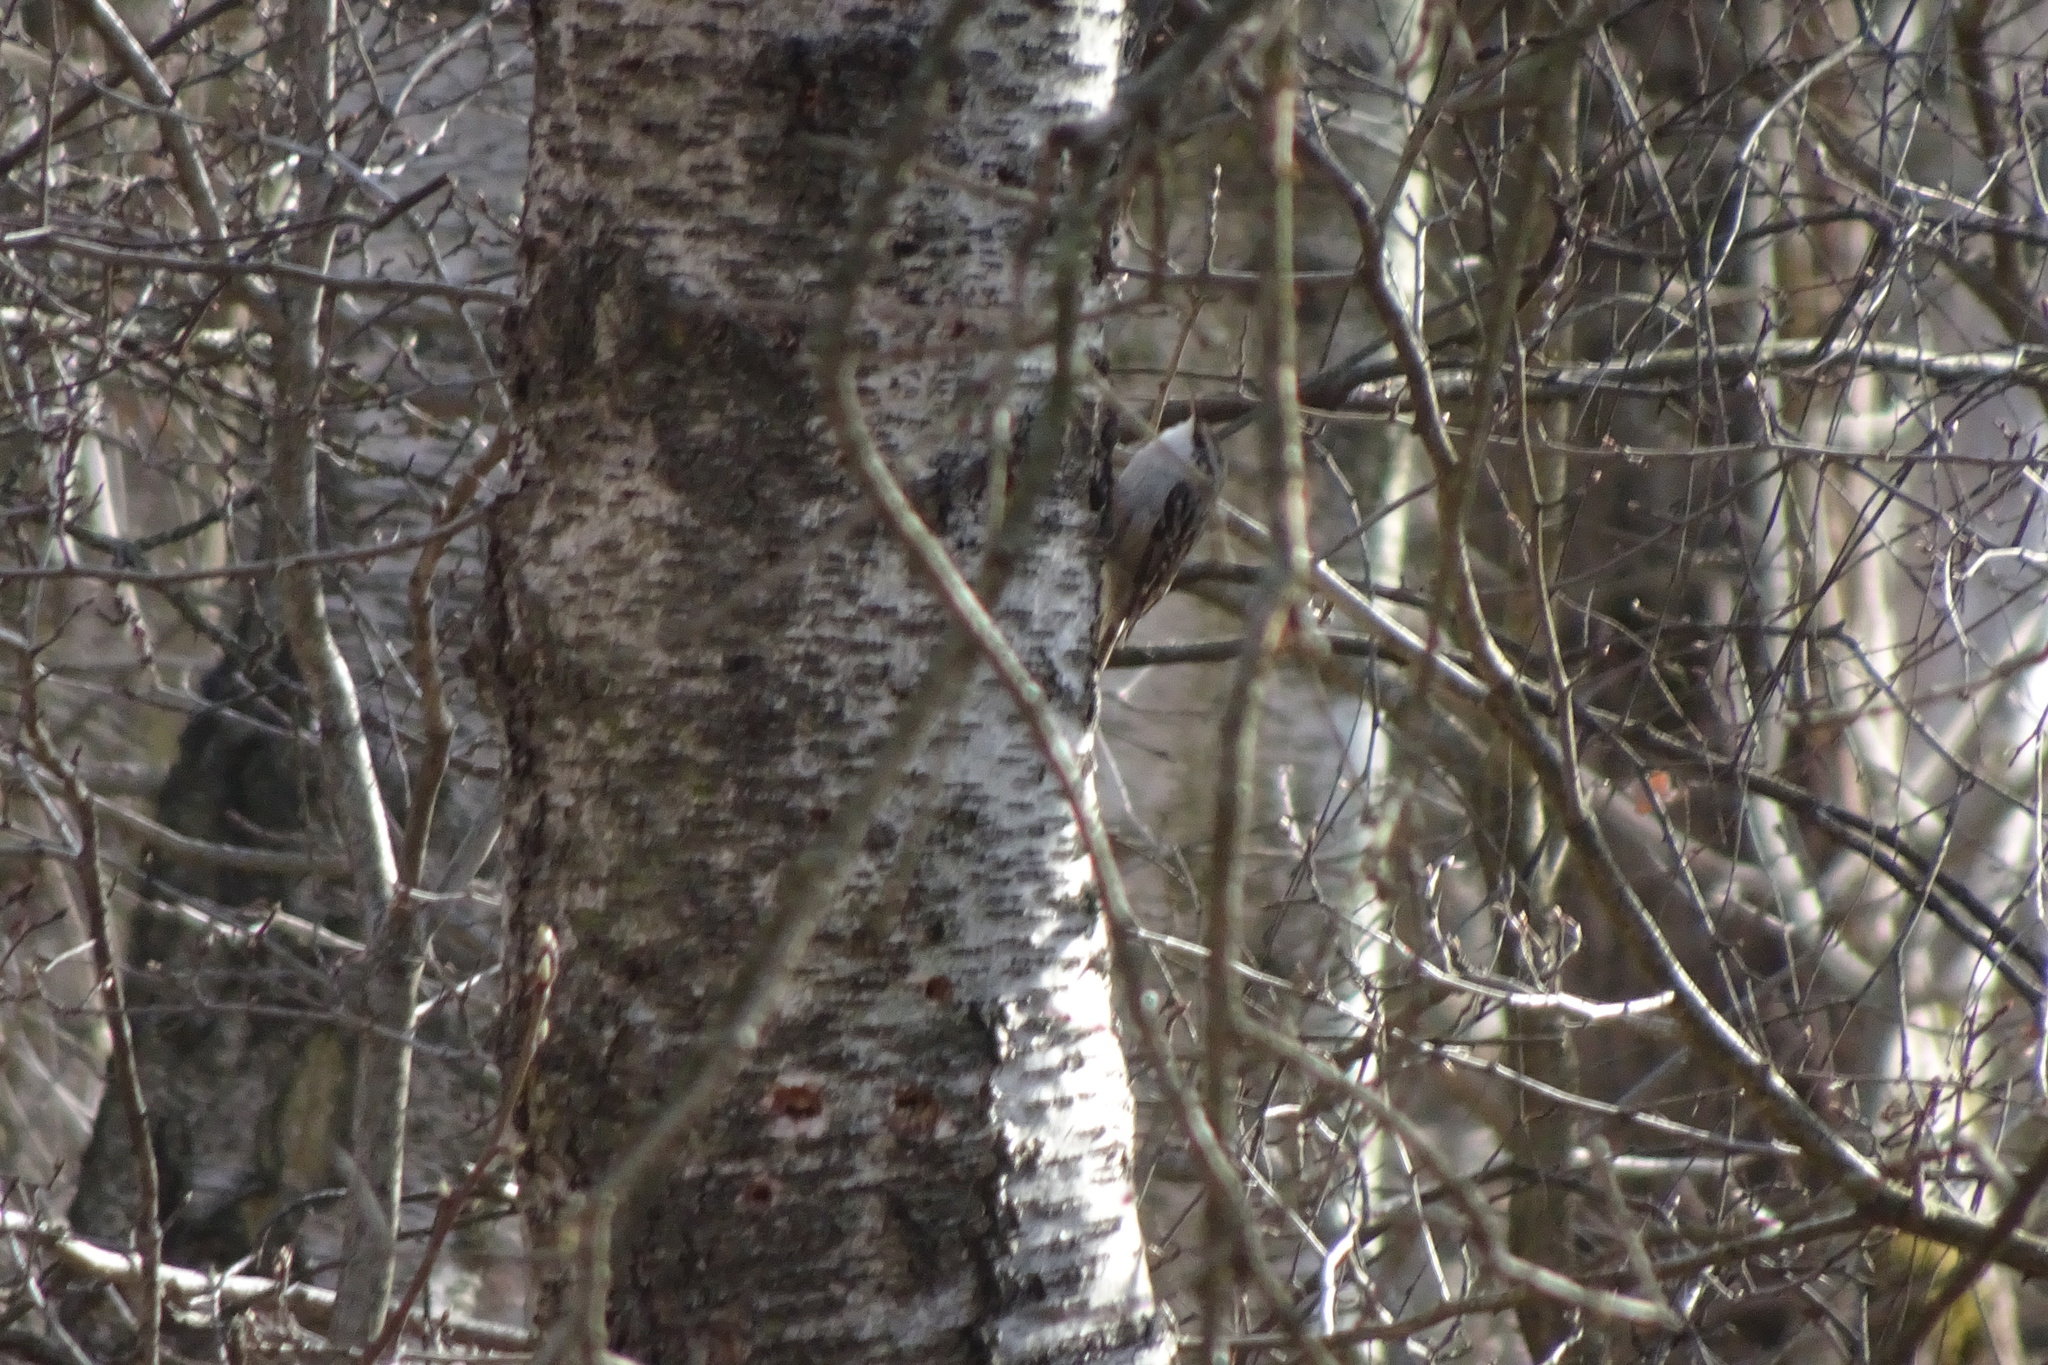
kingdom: Animalia
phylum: Chordata
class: Aves
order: Passeriformes
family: Certhiidae
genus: Certhia
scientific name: Certhia familiaris
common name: Eurasian treecreeper
